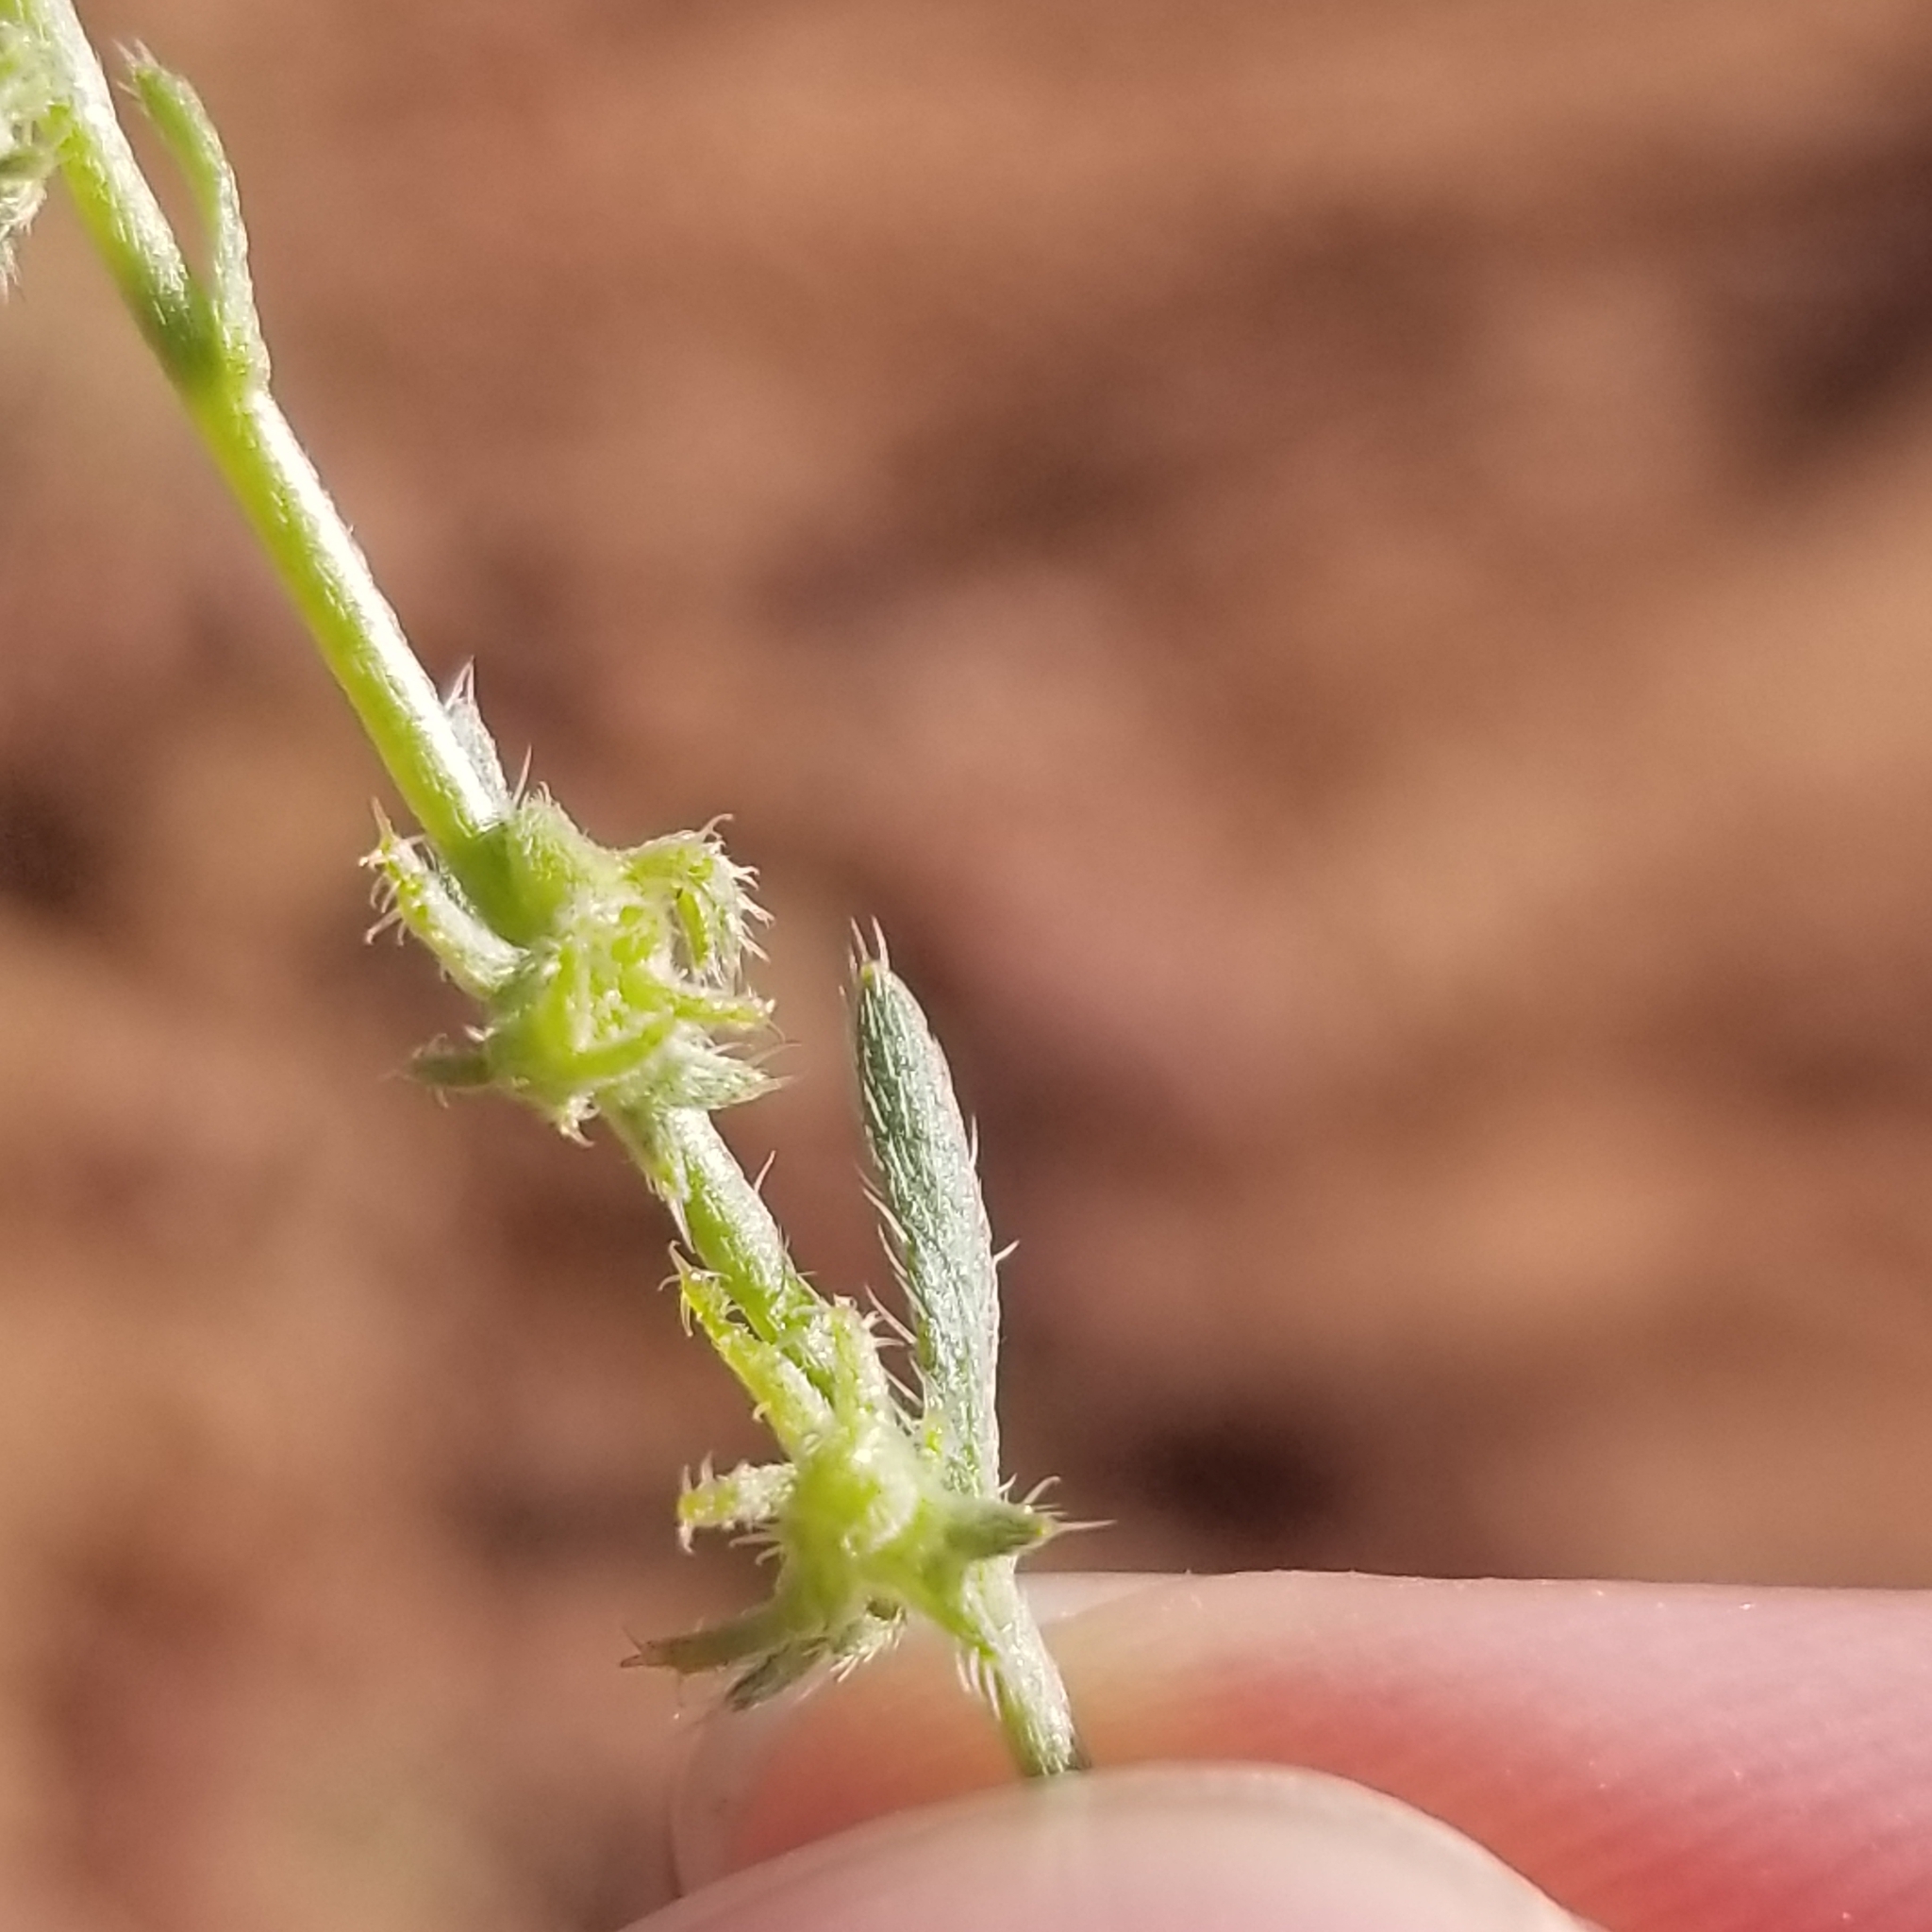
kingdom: Plantae
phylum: Tracheophyta
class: Magnoliopsida
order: Boraginales
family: Boraginaceae
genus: Harpagonella
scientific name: Harpagonella palmeri
